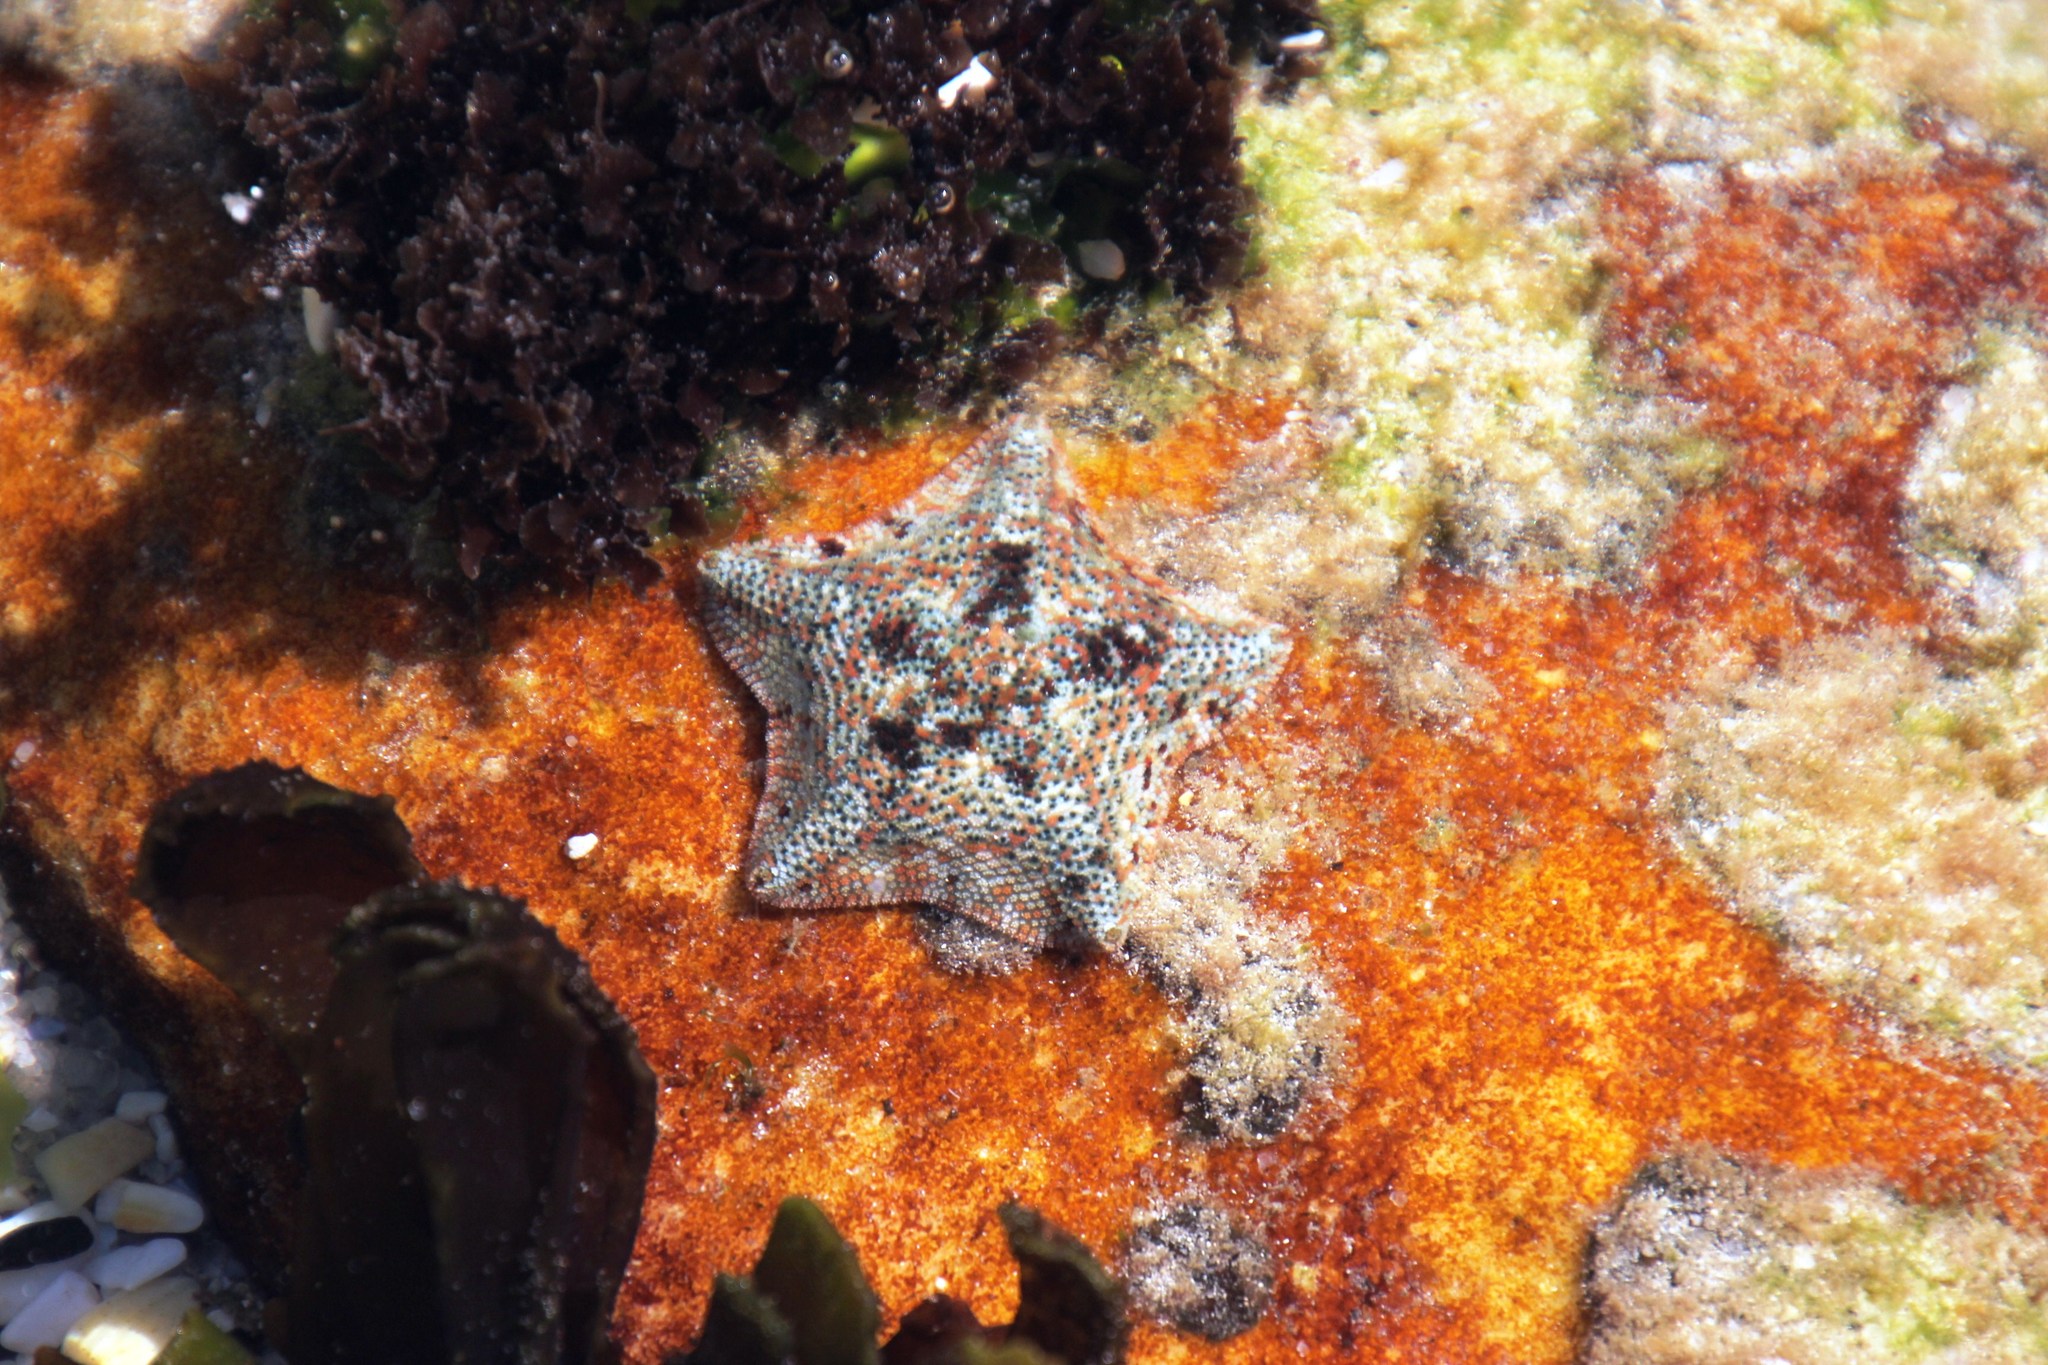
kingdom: Animalia
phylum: Echinodermata
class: Asteroidea
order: Valvatida
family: Asterinidae
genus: Parvulastra
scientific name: Parvulastra exigua
